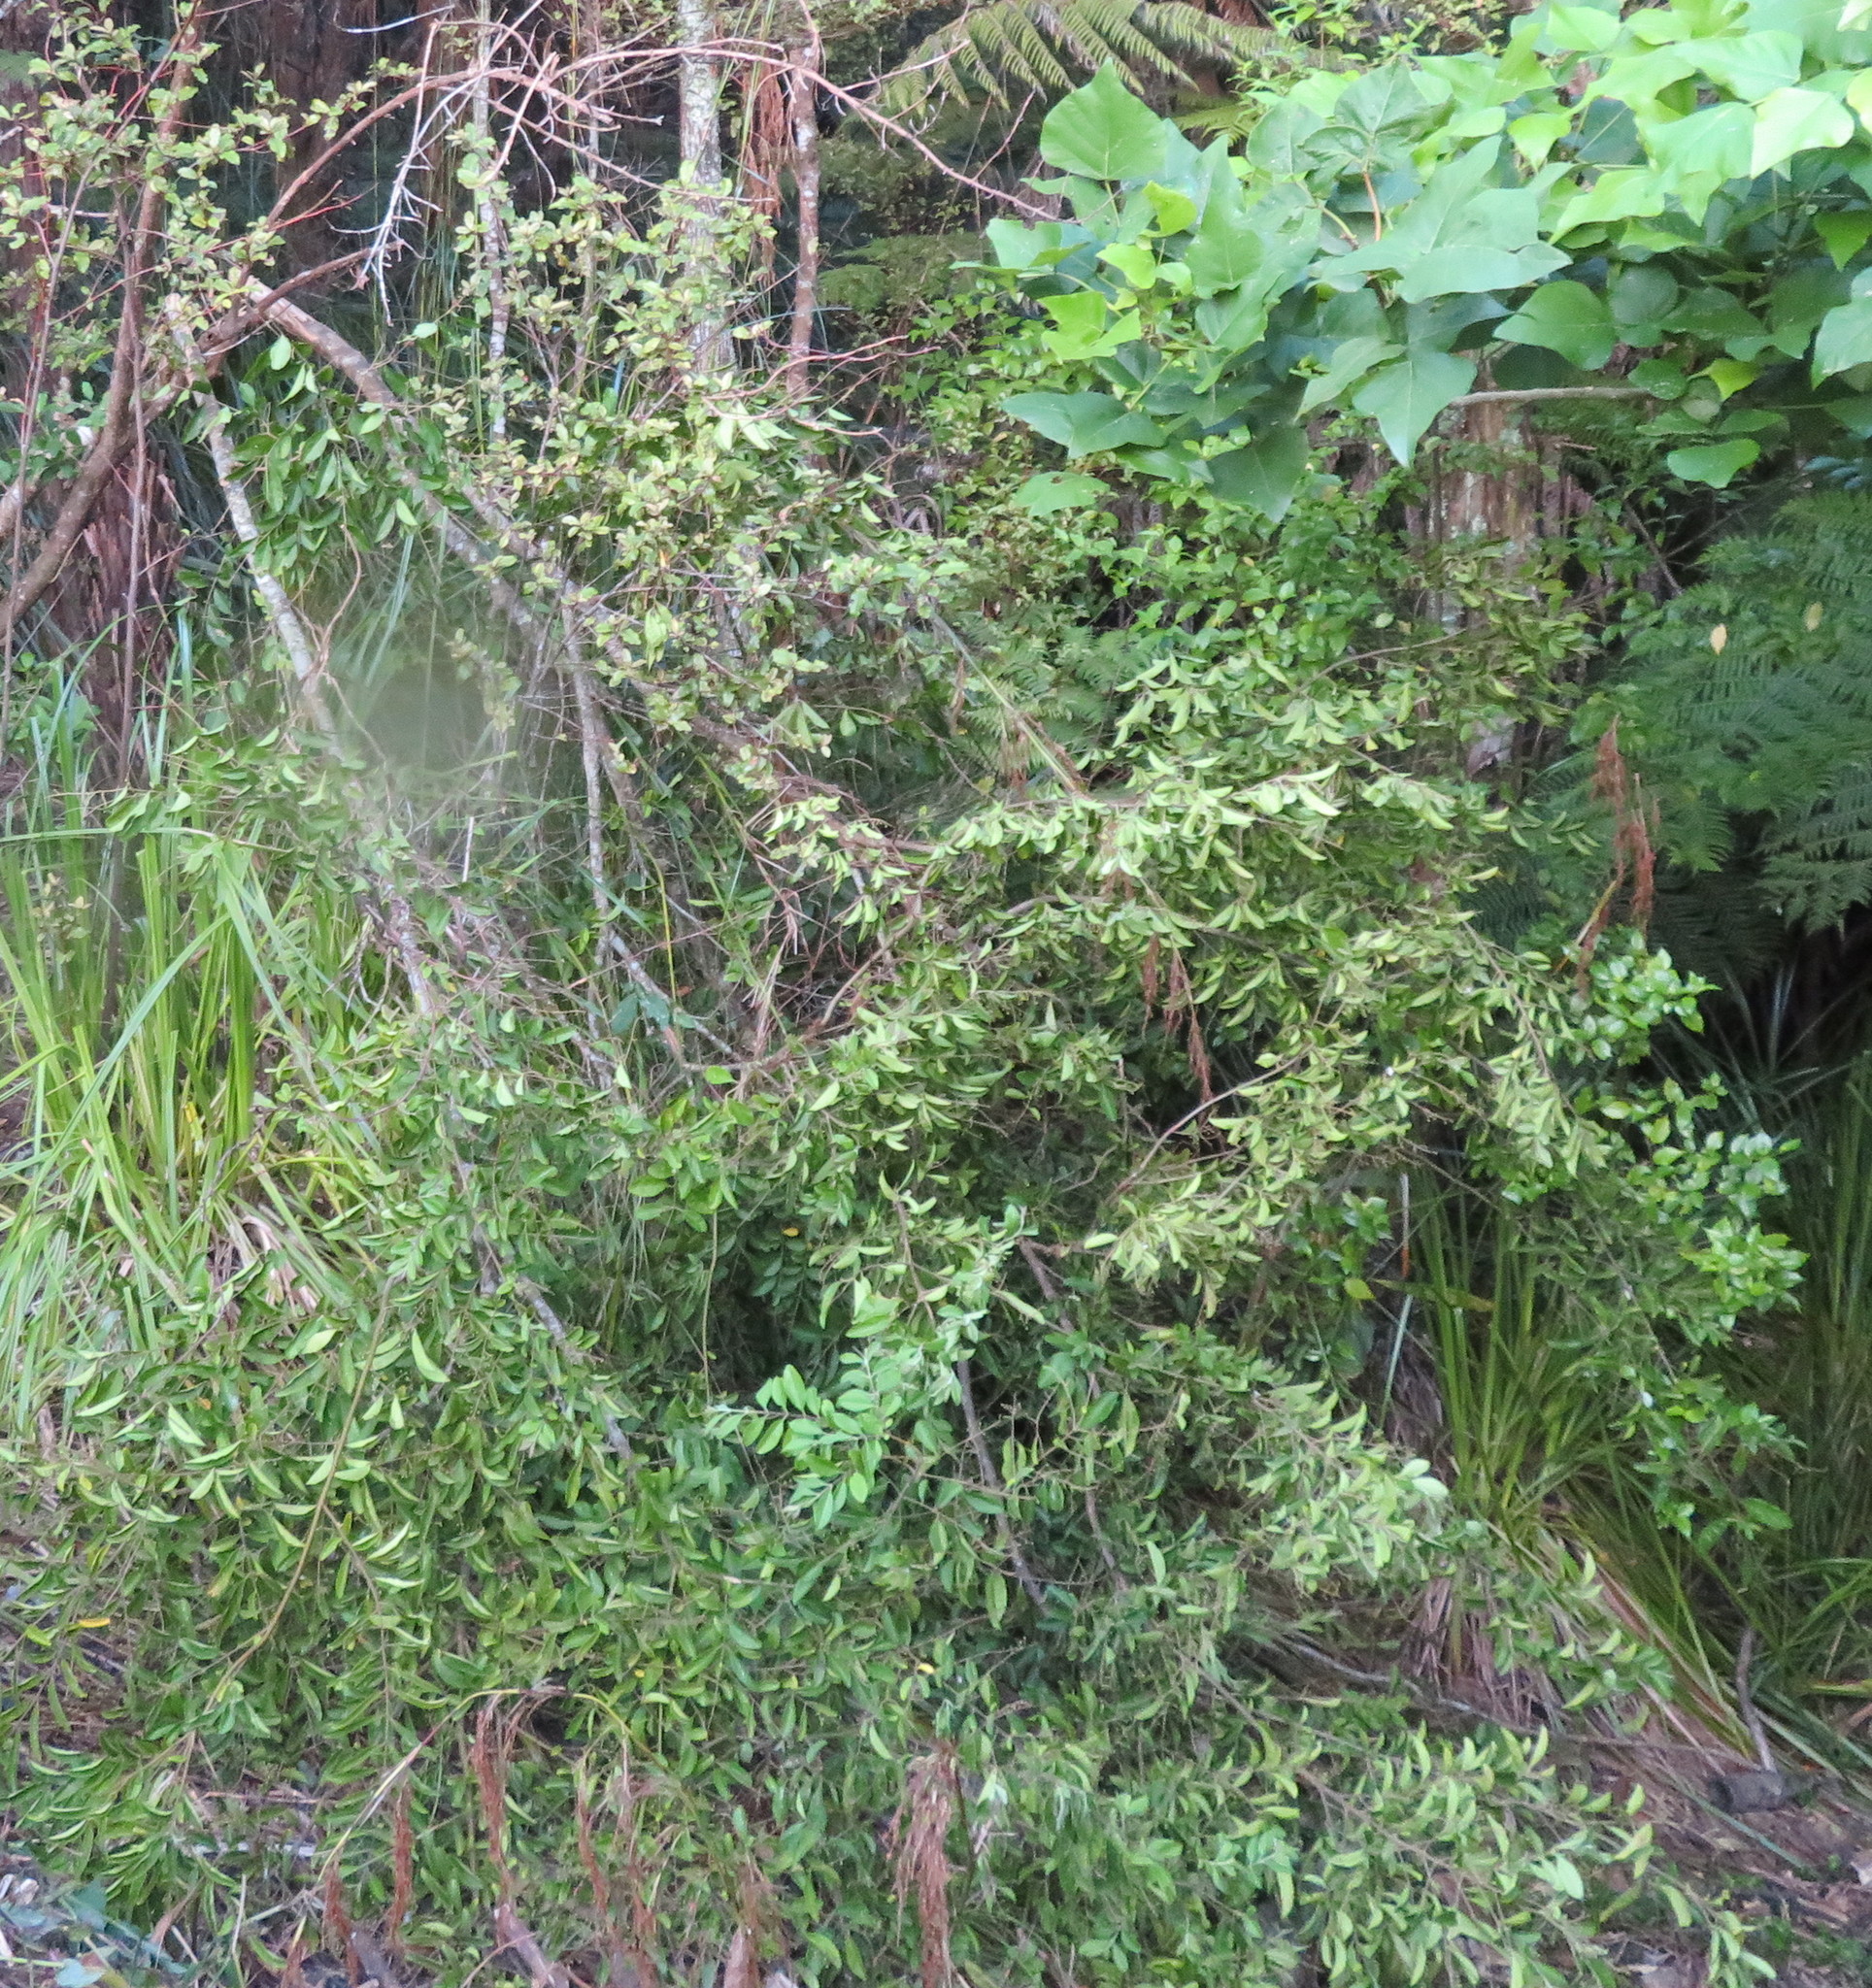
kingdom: Plantae
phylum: Tracheophyta
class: Magnoliopsida
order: Lamiales
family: Oleaceae
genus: Ligustrum
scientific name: Ligustrum sinense
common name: Chinese privet
